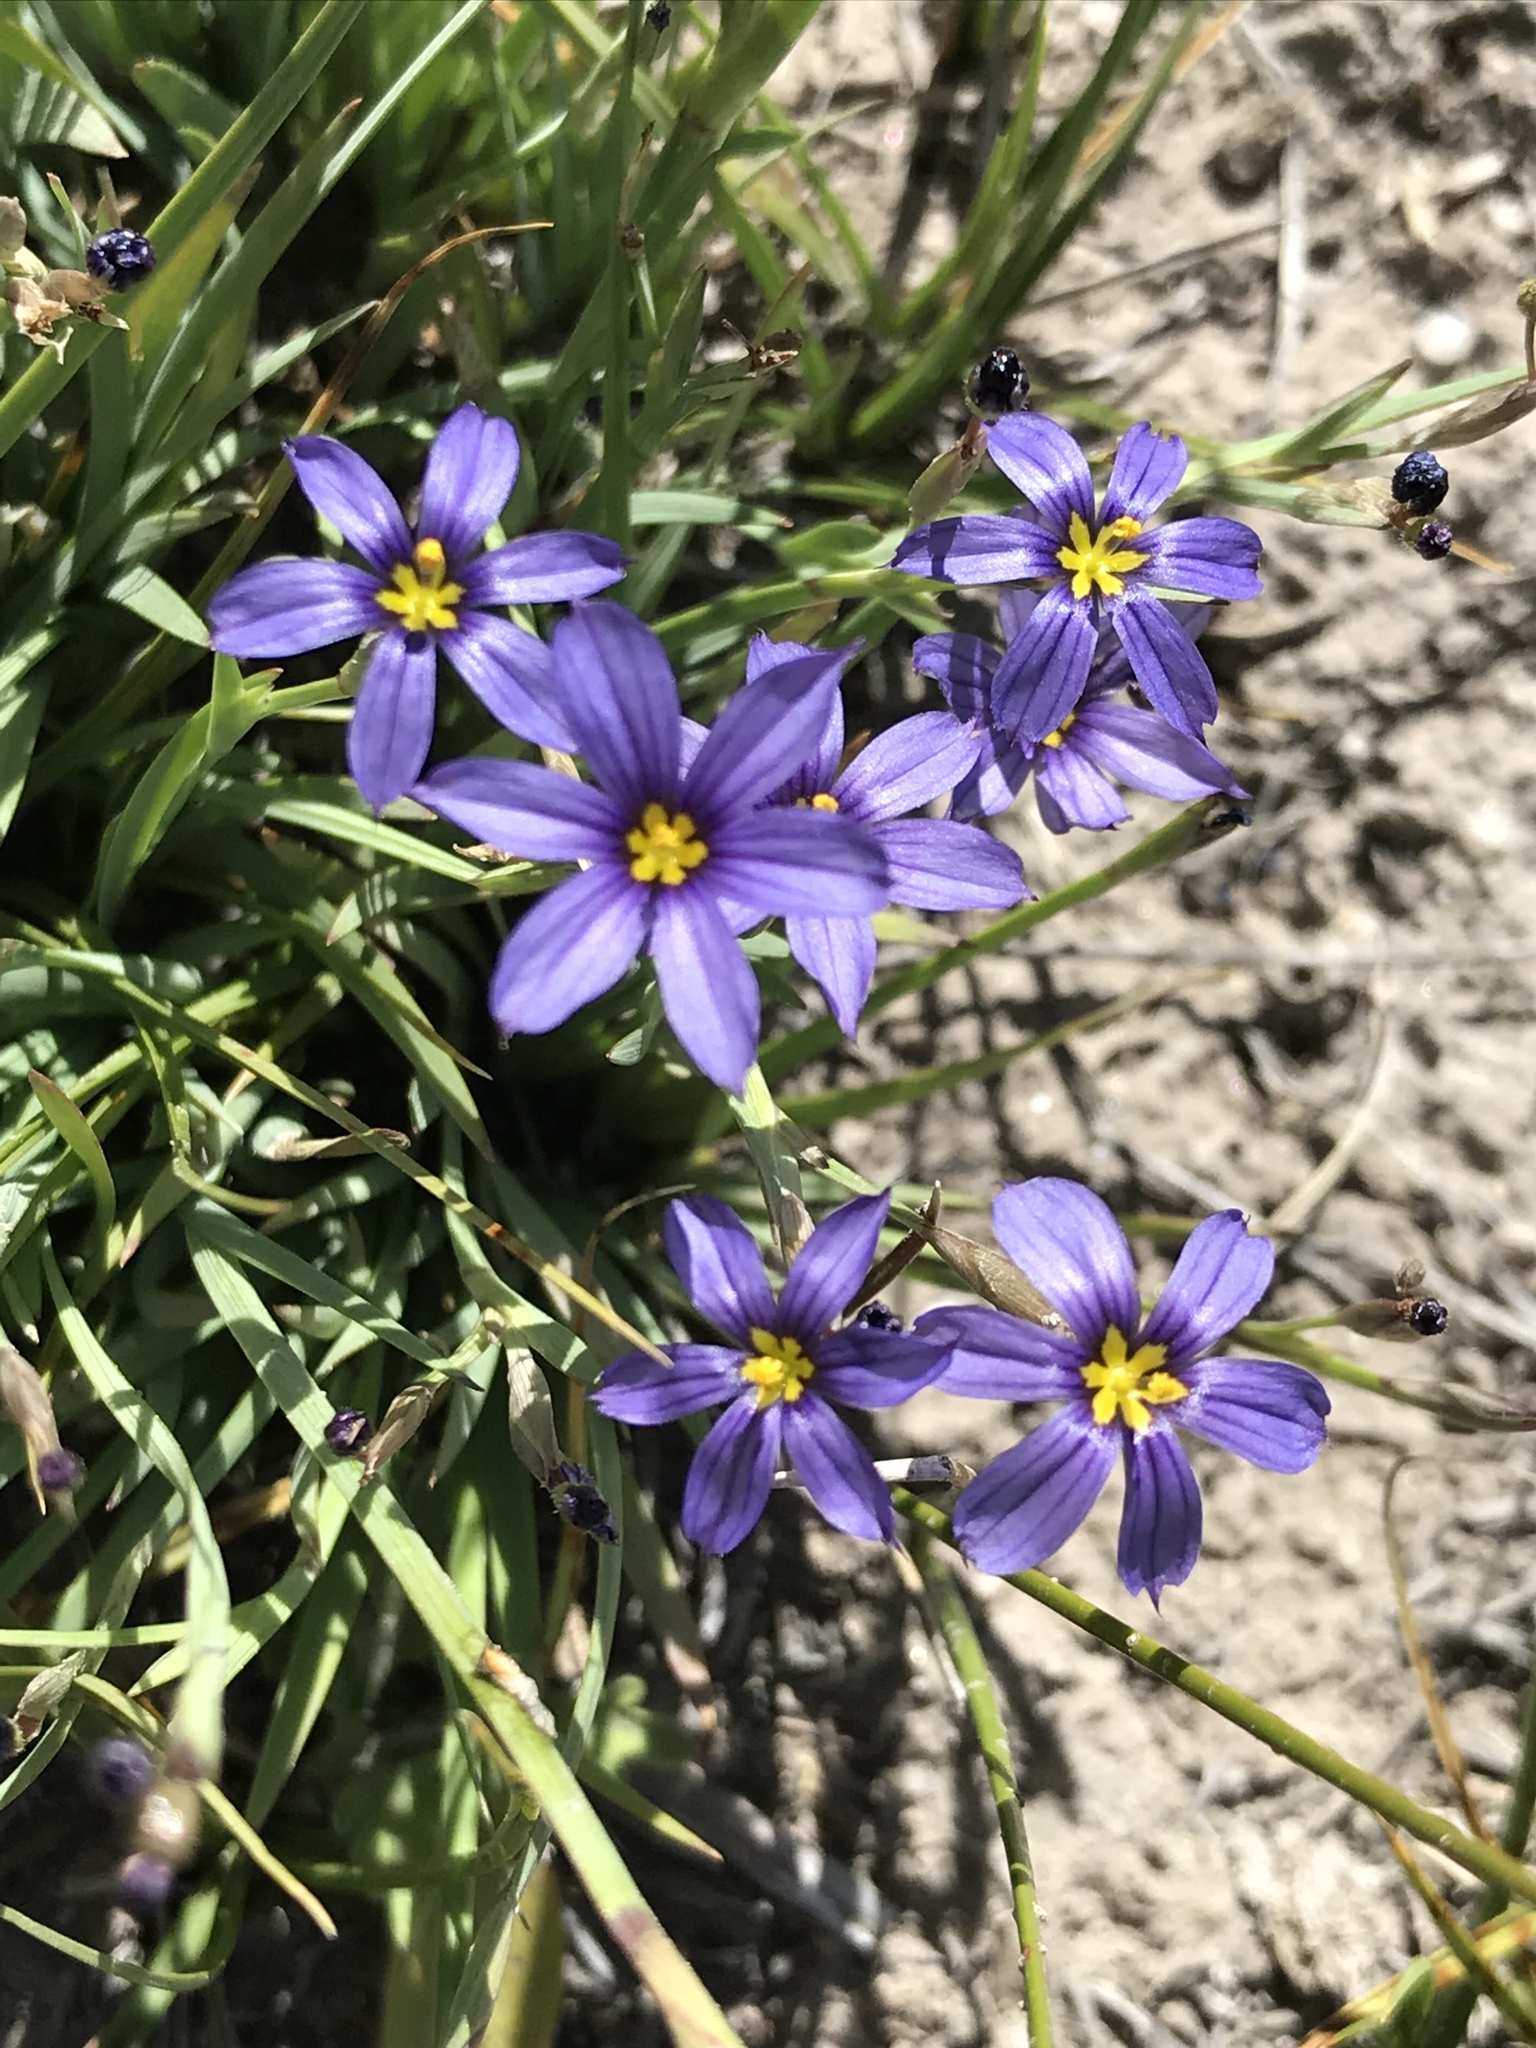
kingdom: Plantae
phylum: Tracheophyta
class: Liliopsida
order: Asparagales
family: Iridaceae
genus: Sisyrinchium
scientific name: Sisyrinchium idahoense
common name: Idaho blue-eyed-grass
